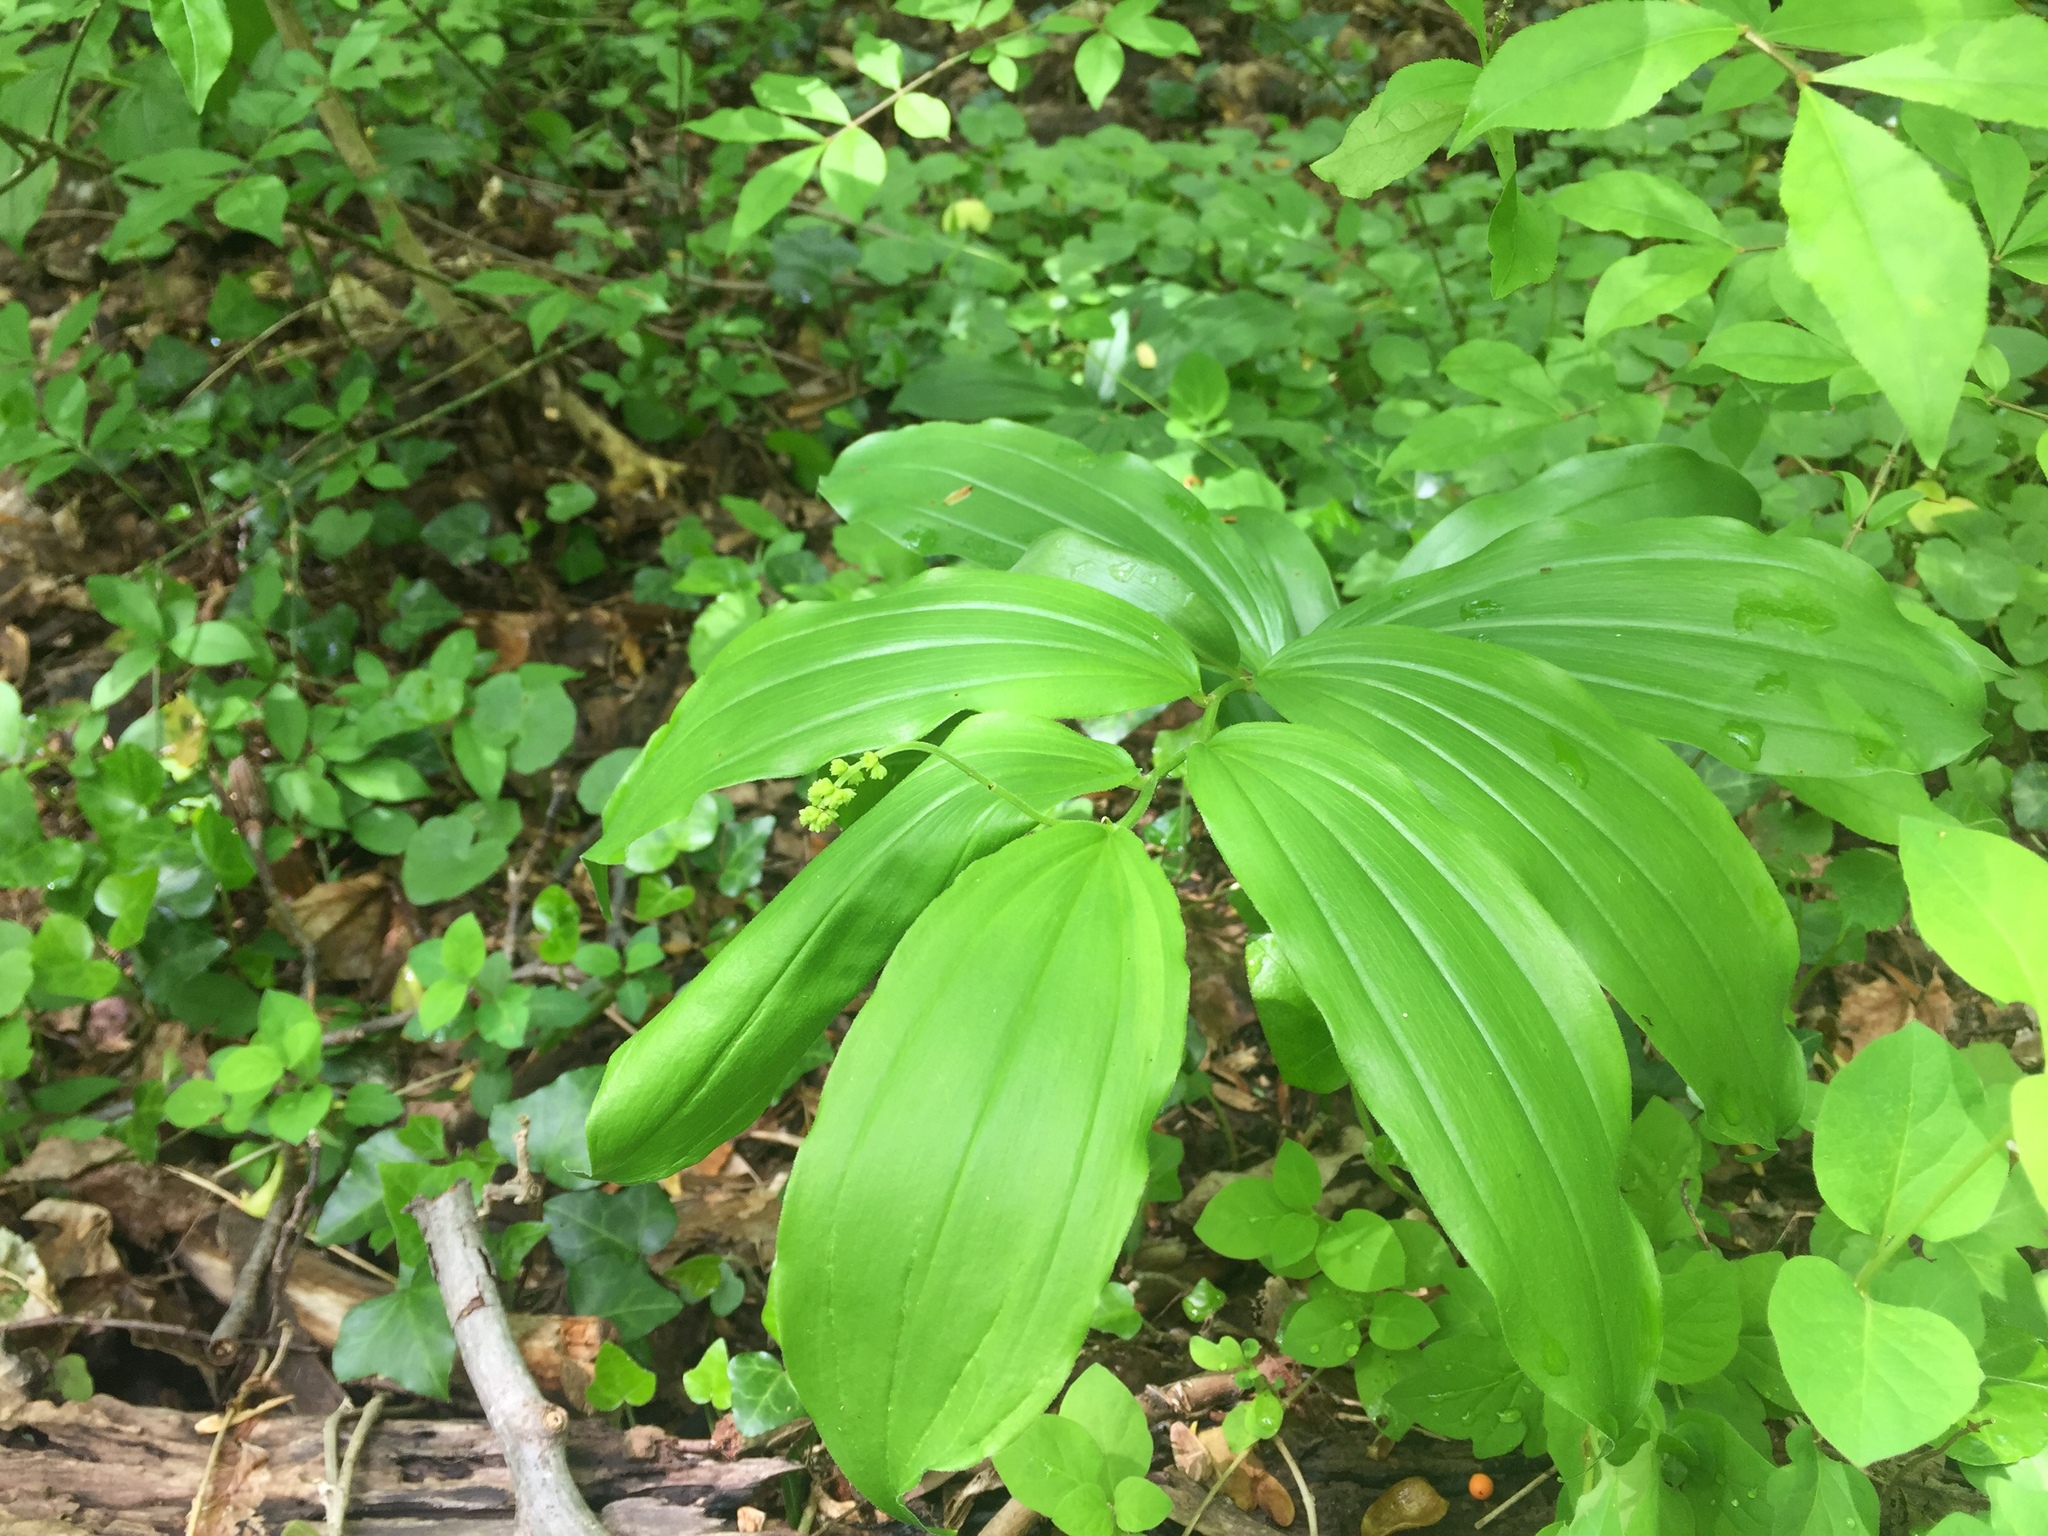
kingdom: Plantae
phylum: Tracheophyta
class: Liliopsida
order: Asparagales
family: Asparagaceae
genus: Maianthemum
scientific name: Maianthemum racemosum
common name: False spikenard
